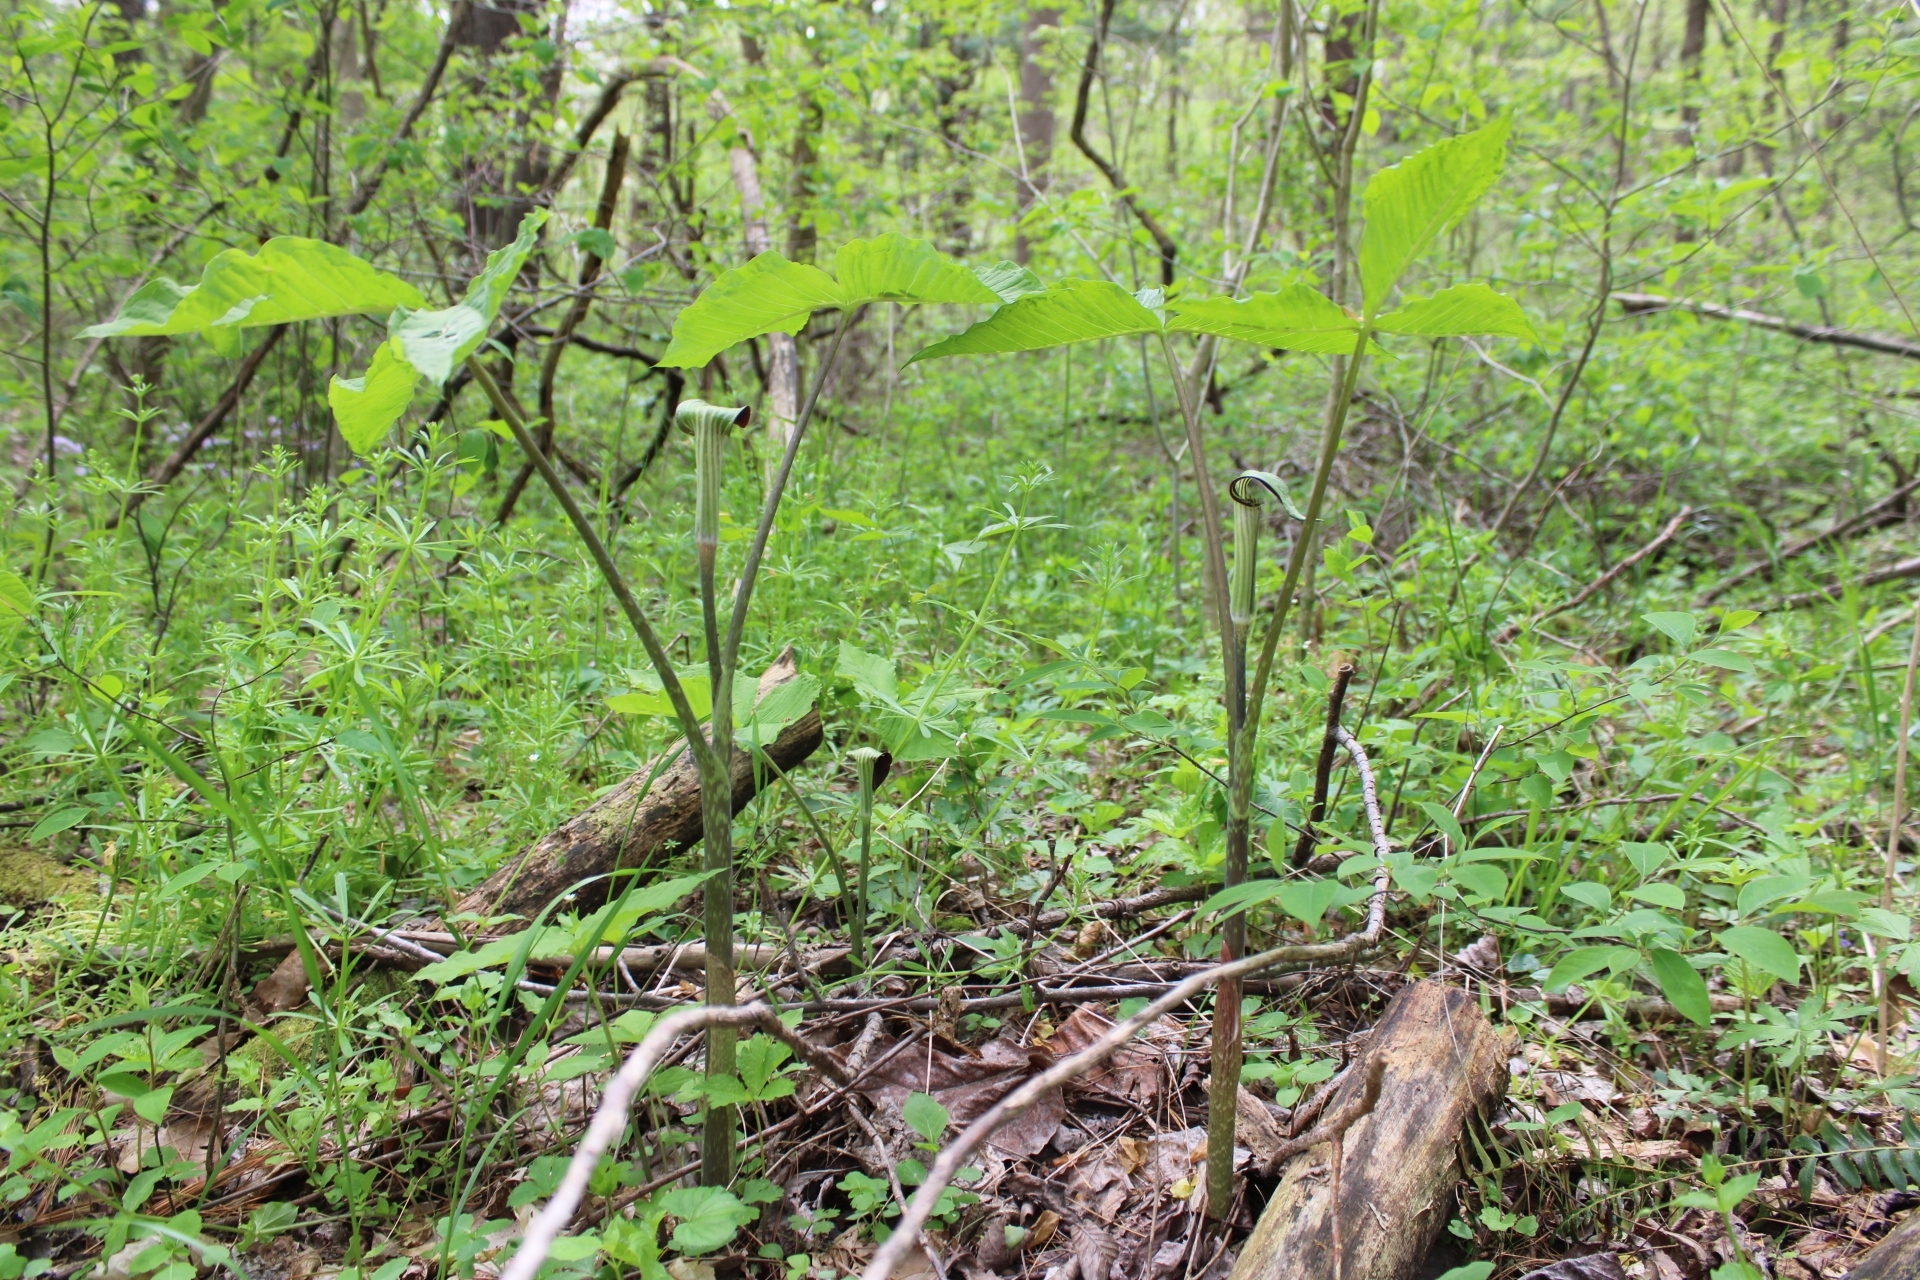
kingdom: Plantae
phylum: Tracheophyta
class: Liliopsida
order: Alismatales
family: Araceae
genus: Arisaema
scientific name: Arisaema triphyllum
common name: Jack-in-the-pulpit
